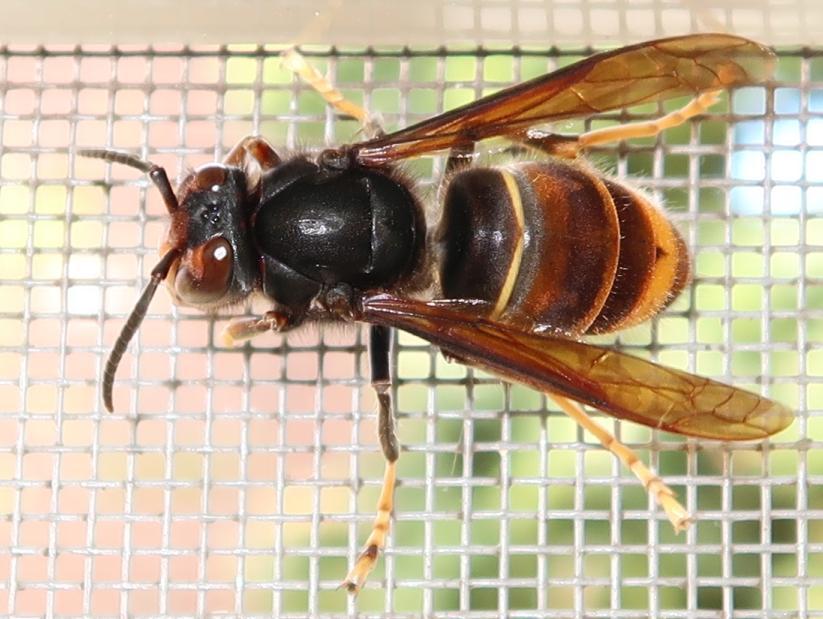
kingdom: Animalia
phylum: Arthropoda
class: Insecta
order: Hymenoptera
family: Vespidae
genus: Vespa
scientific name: Vespa velutina
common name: Asian hornet
